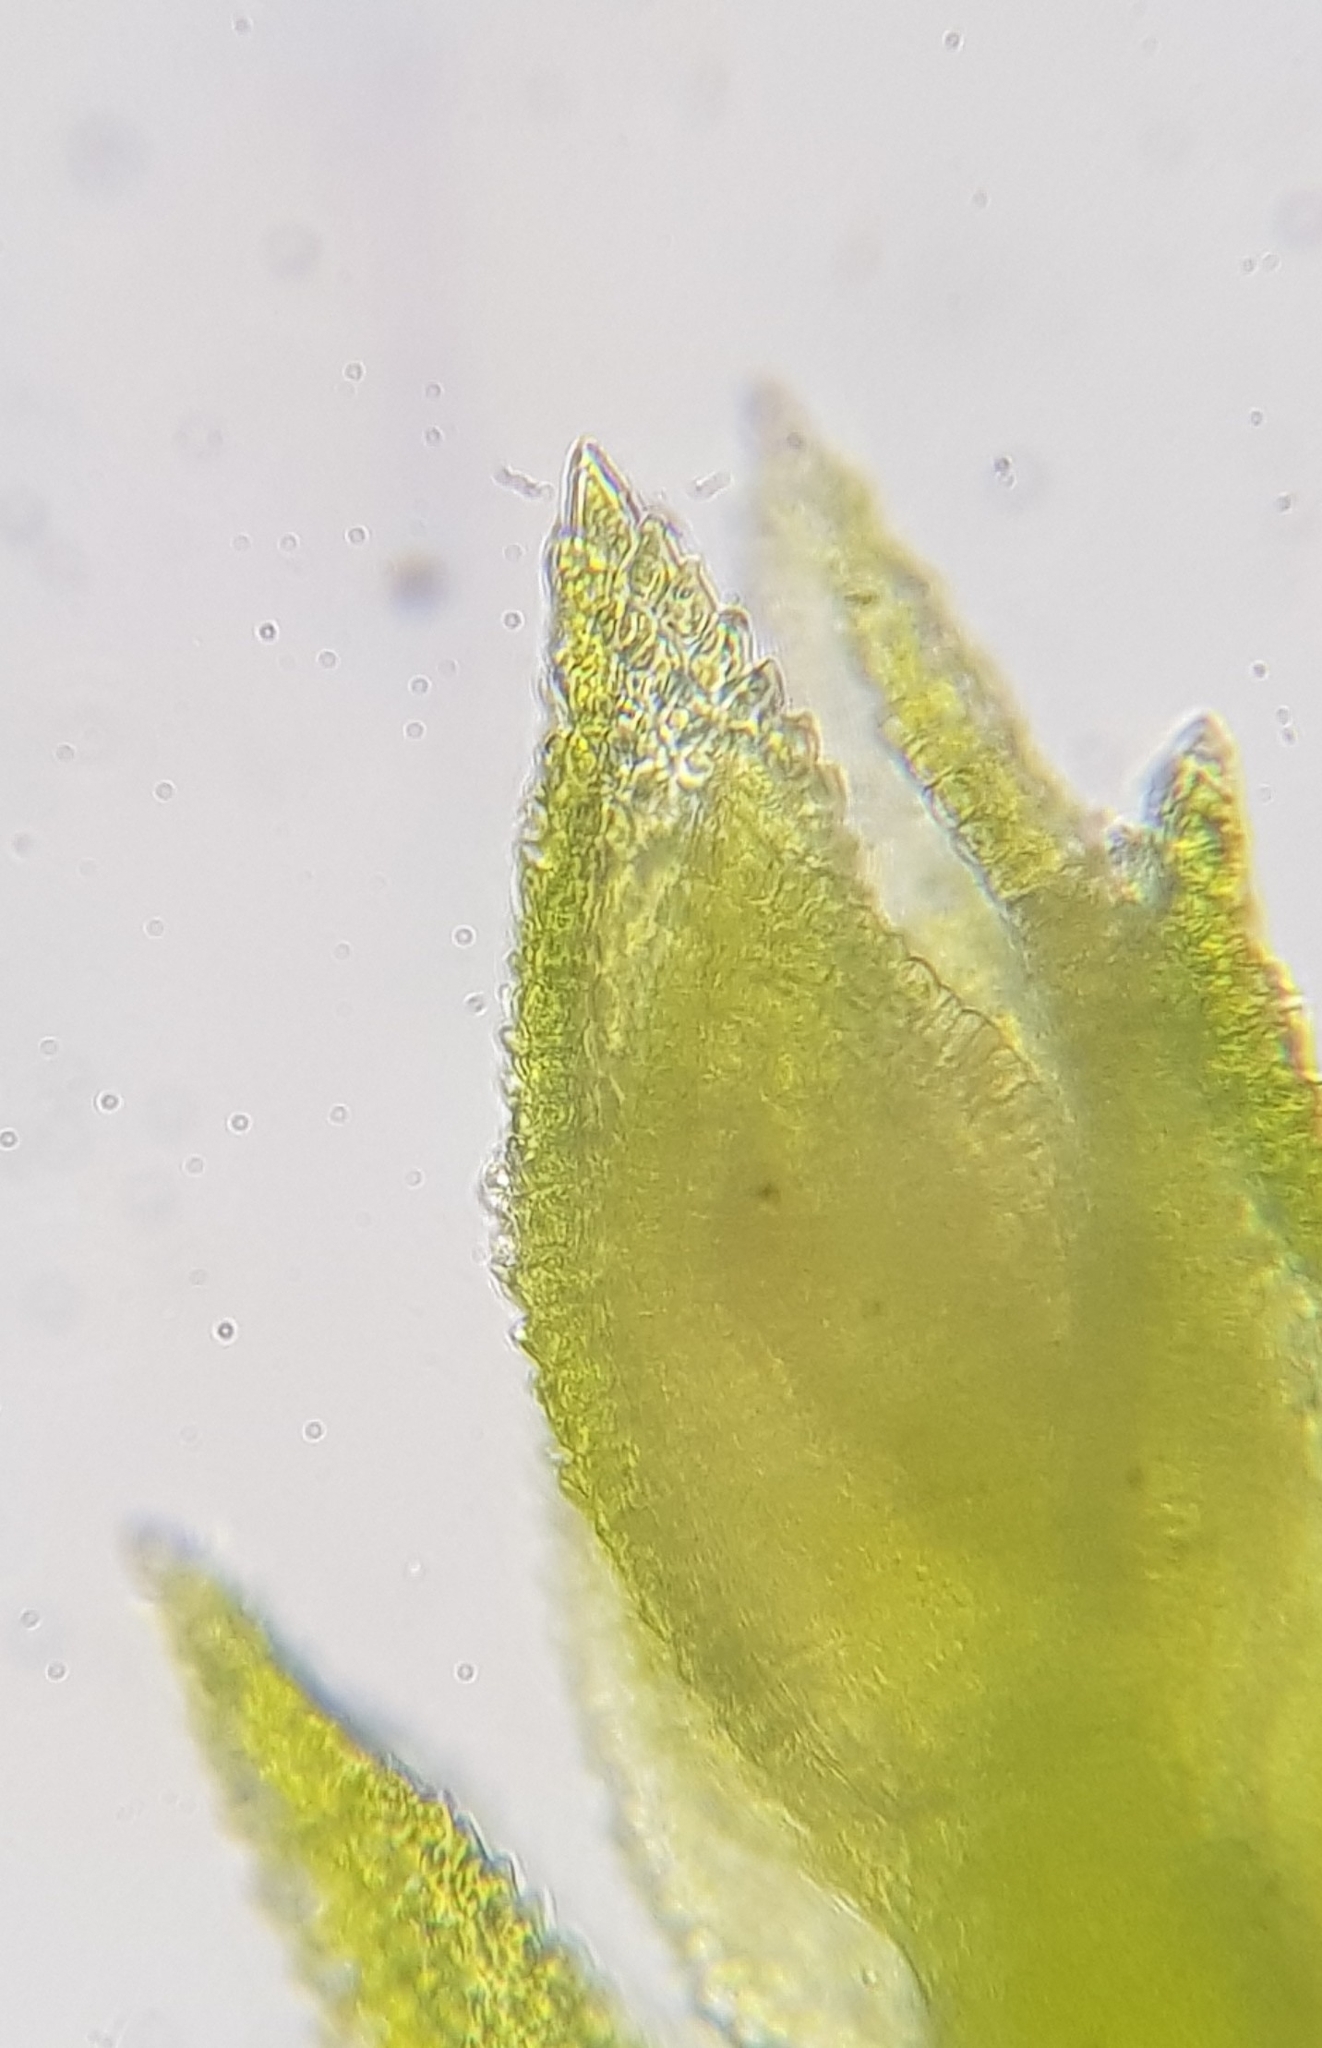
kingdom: Plantae
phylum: Bryophyta
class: Bryopsida
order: Hypnales
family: Thuidiaceae
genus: Thuidium
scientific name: Thuidium tamariscinum
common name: Common tamarisk-moss
